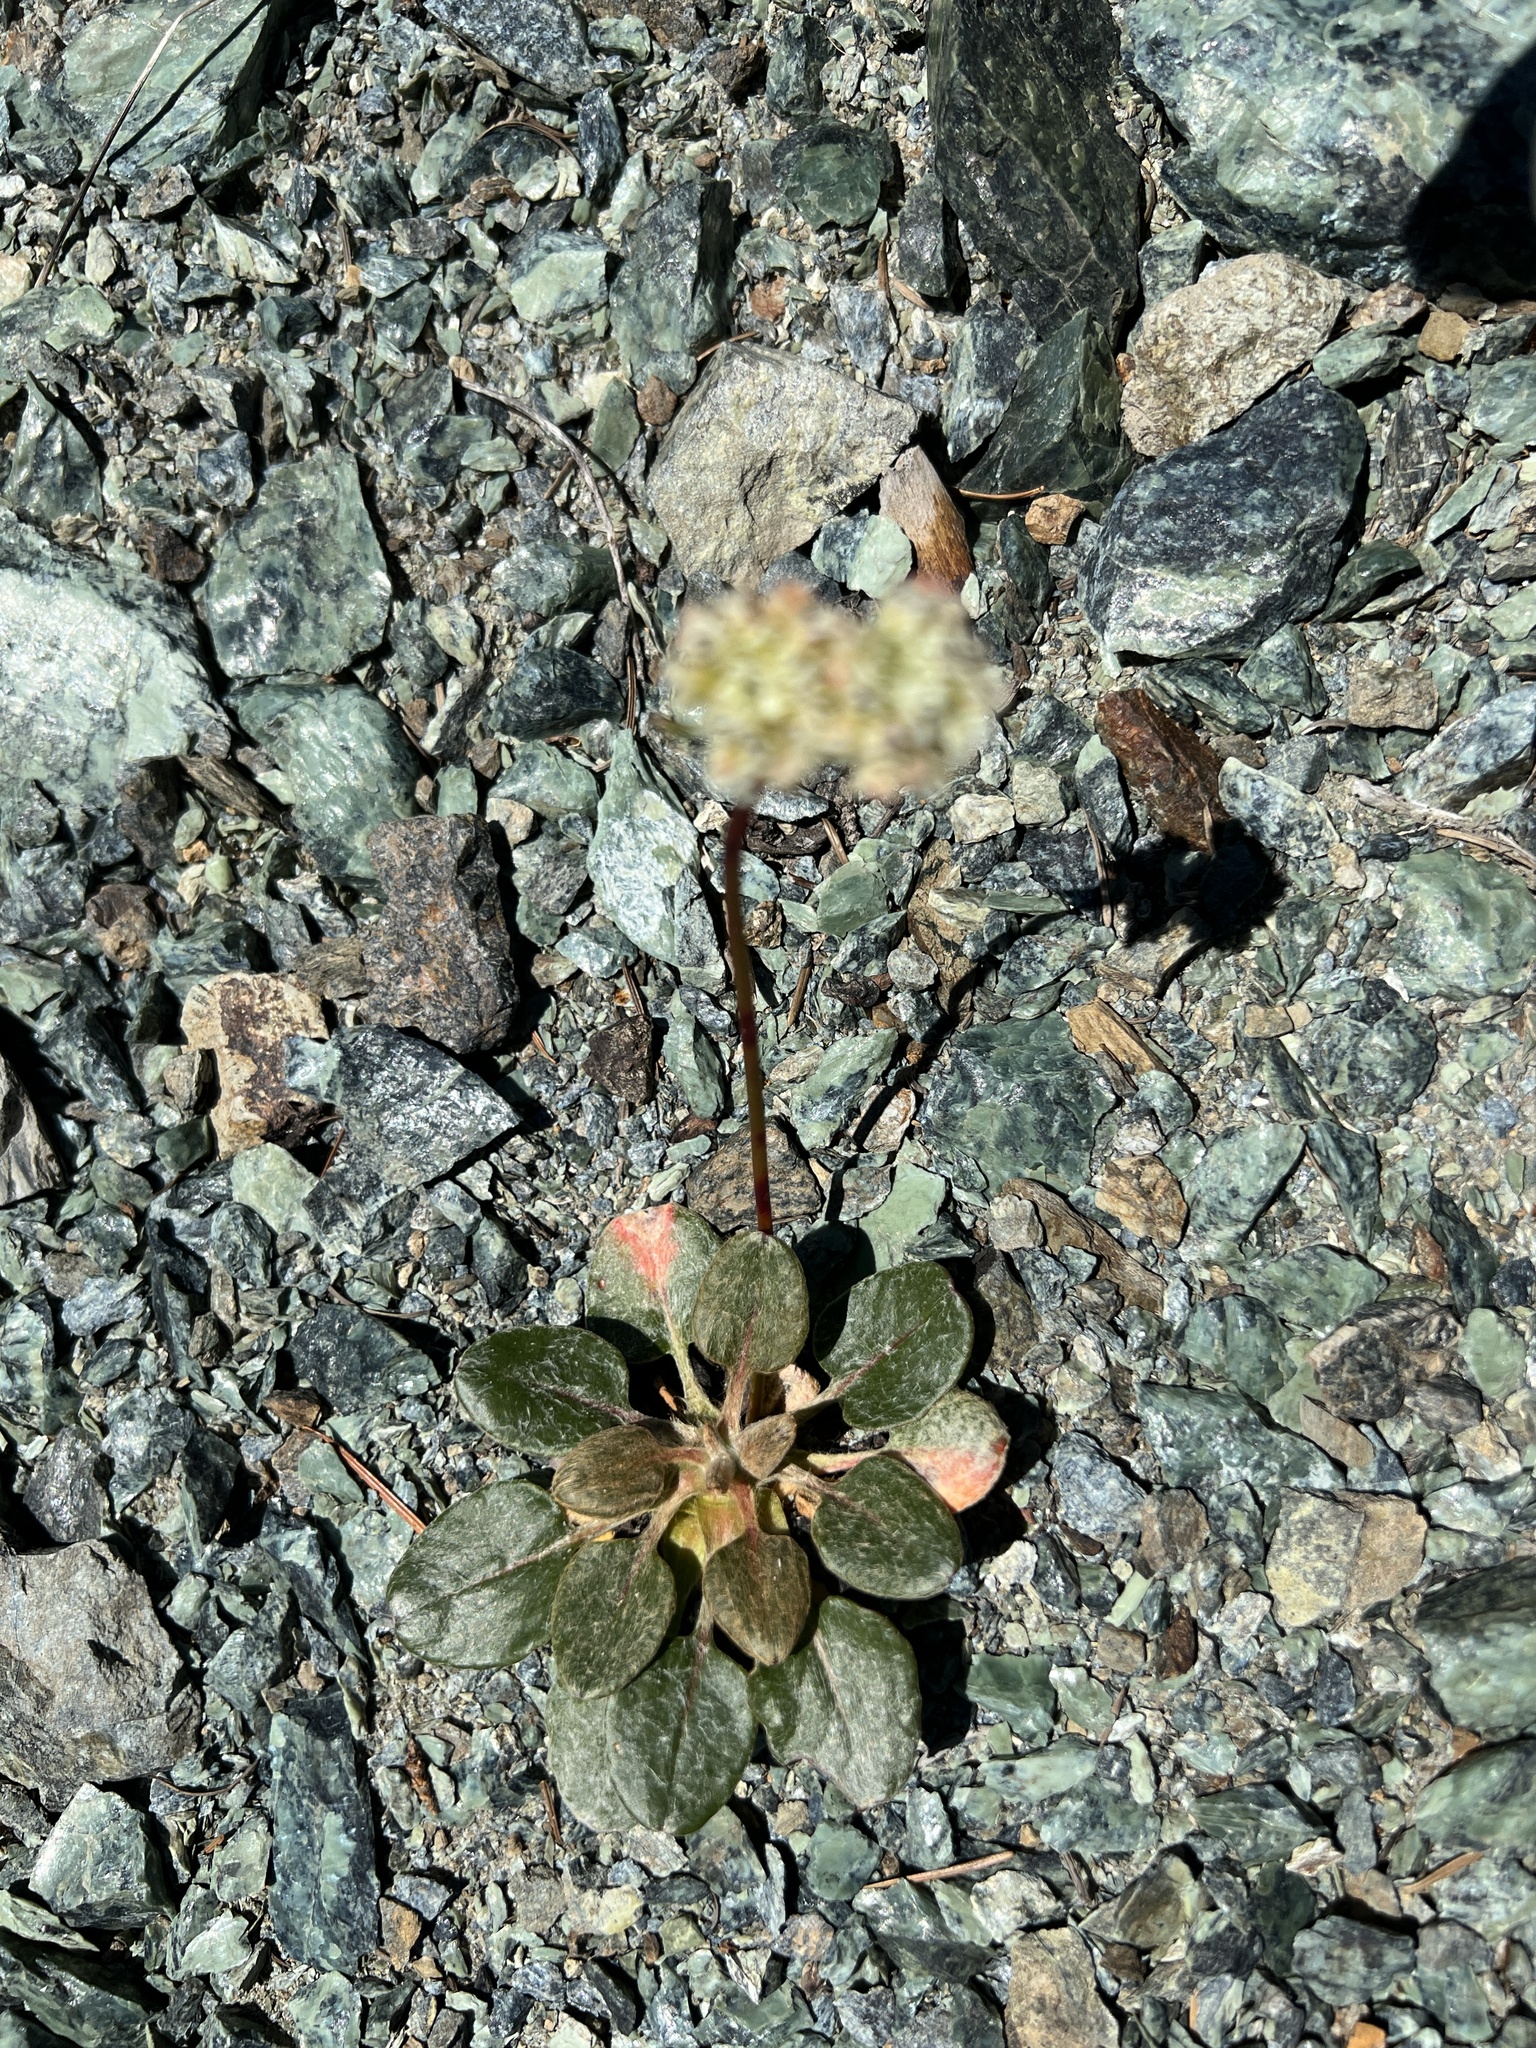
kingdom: Plantae
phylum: Tracheophyta
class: Magnoliopsida
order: Caryophyllales
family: Polygonaceae
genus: Eriogonum
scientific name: Eriogonum pyrolifolium
